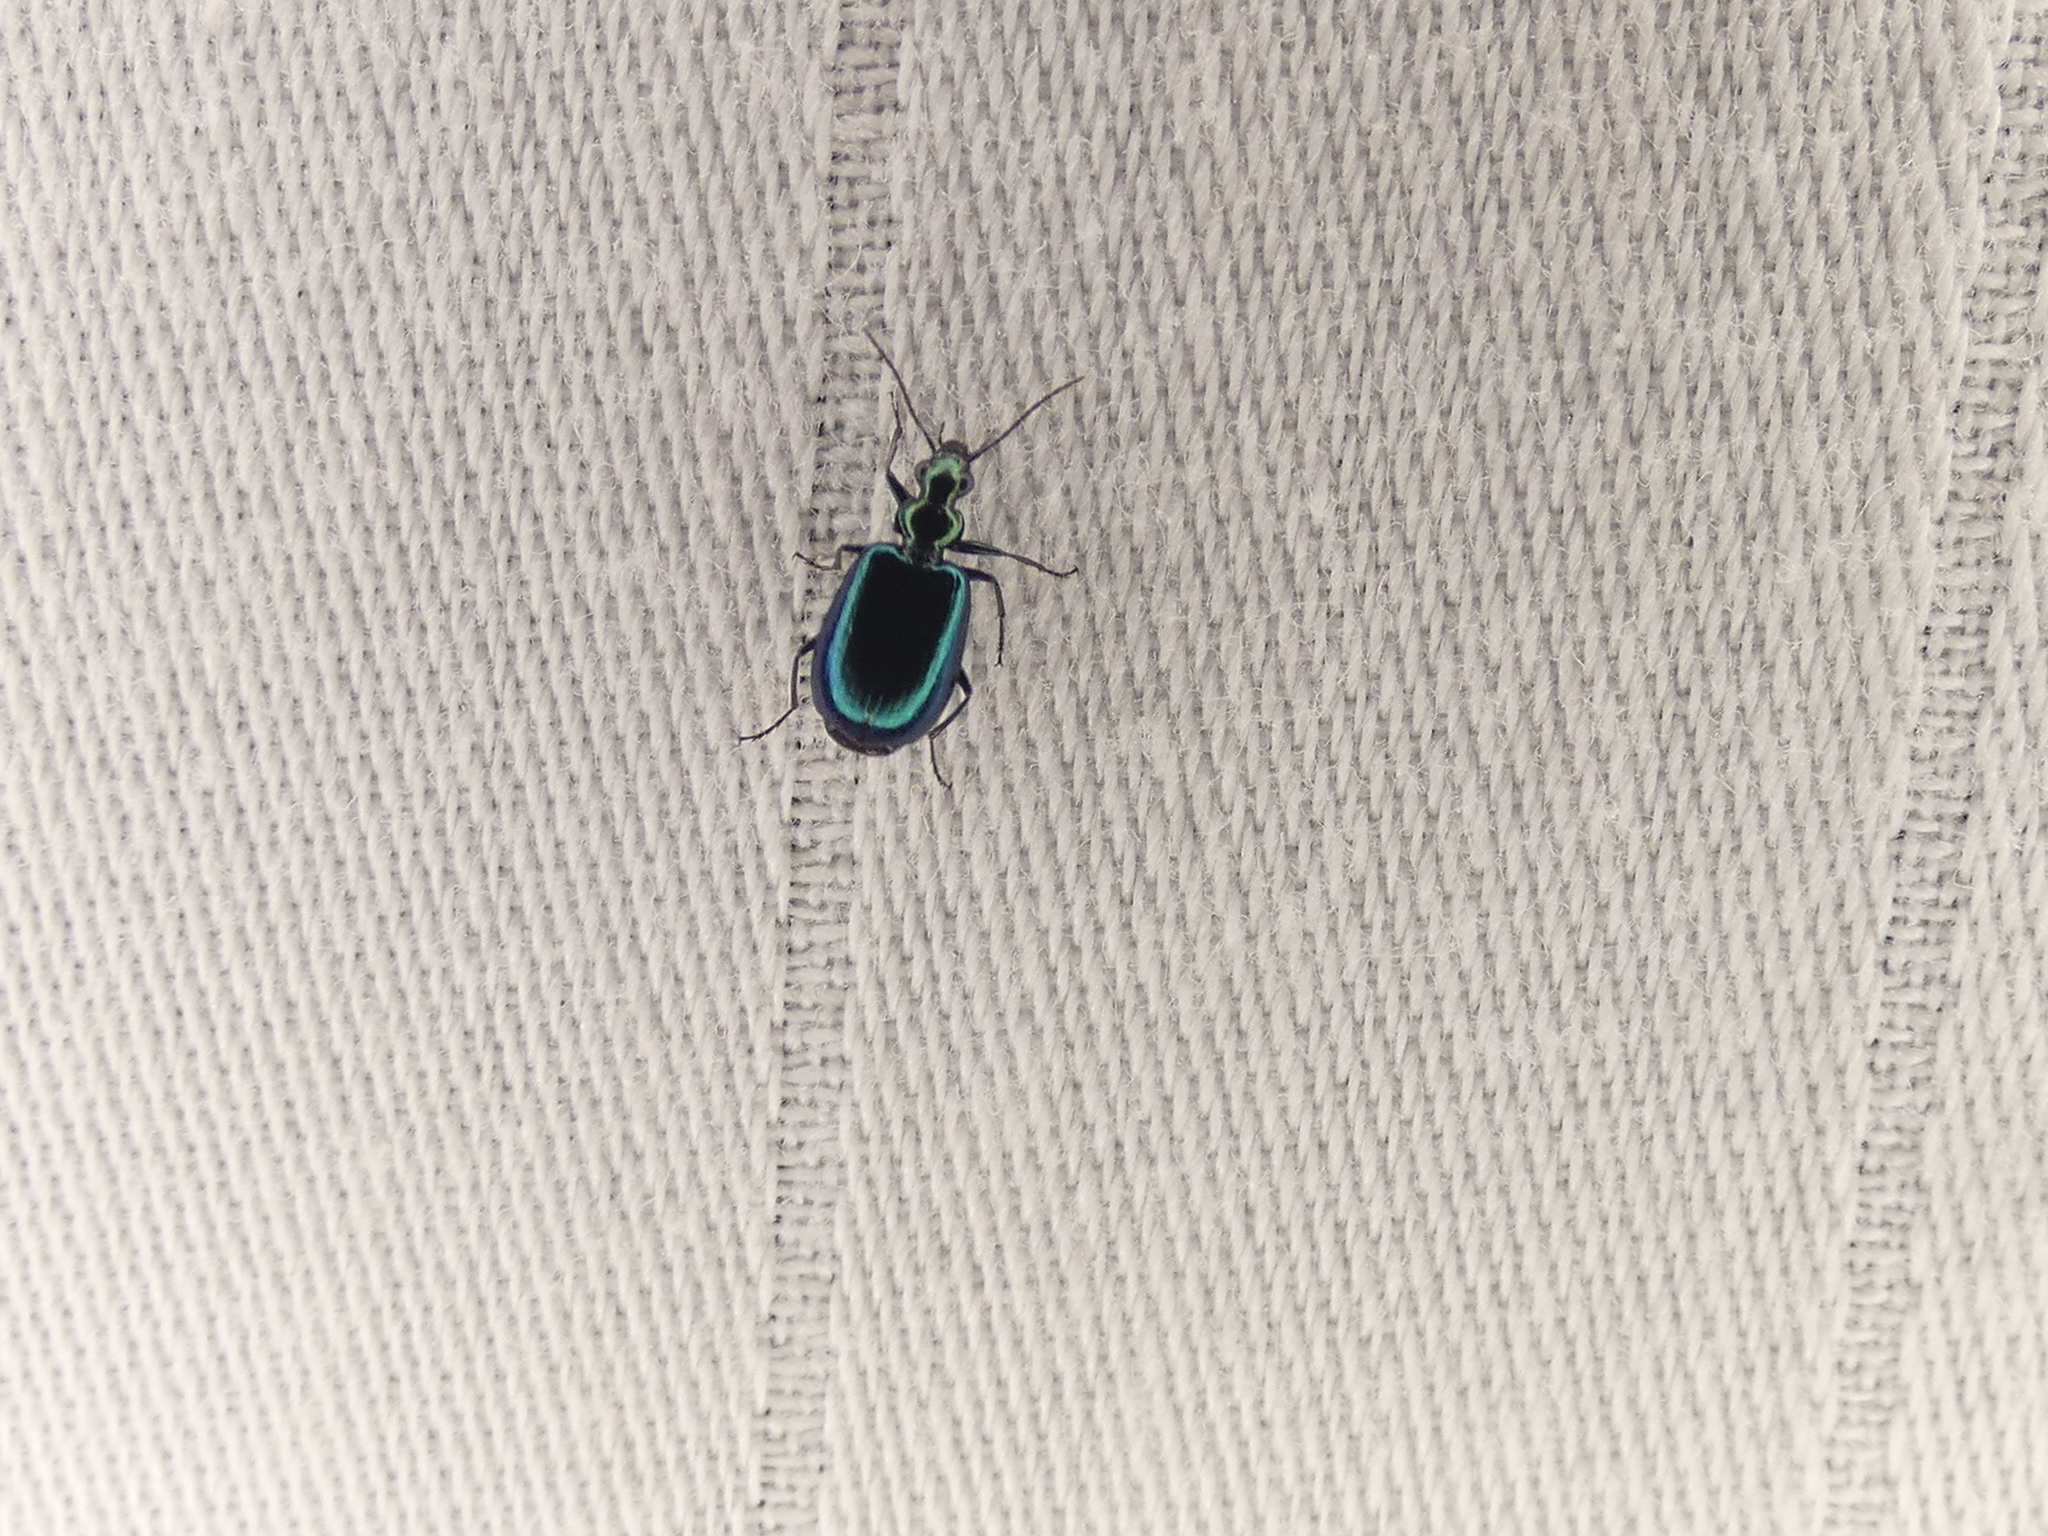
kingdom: Animalia
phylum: Arthropoda
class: Insecta
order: Coleoptera
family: Carabidae
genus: Lebia
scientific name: Lebia viridis
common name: Flower lebia beetle
